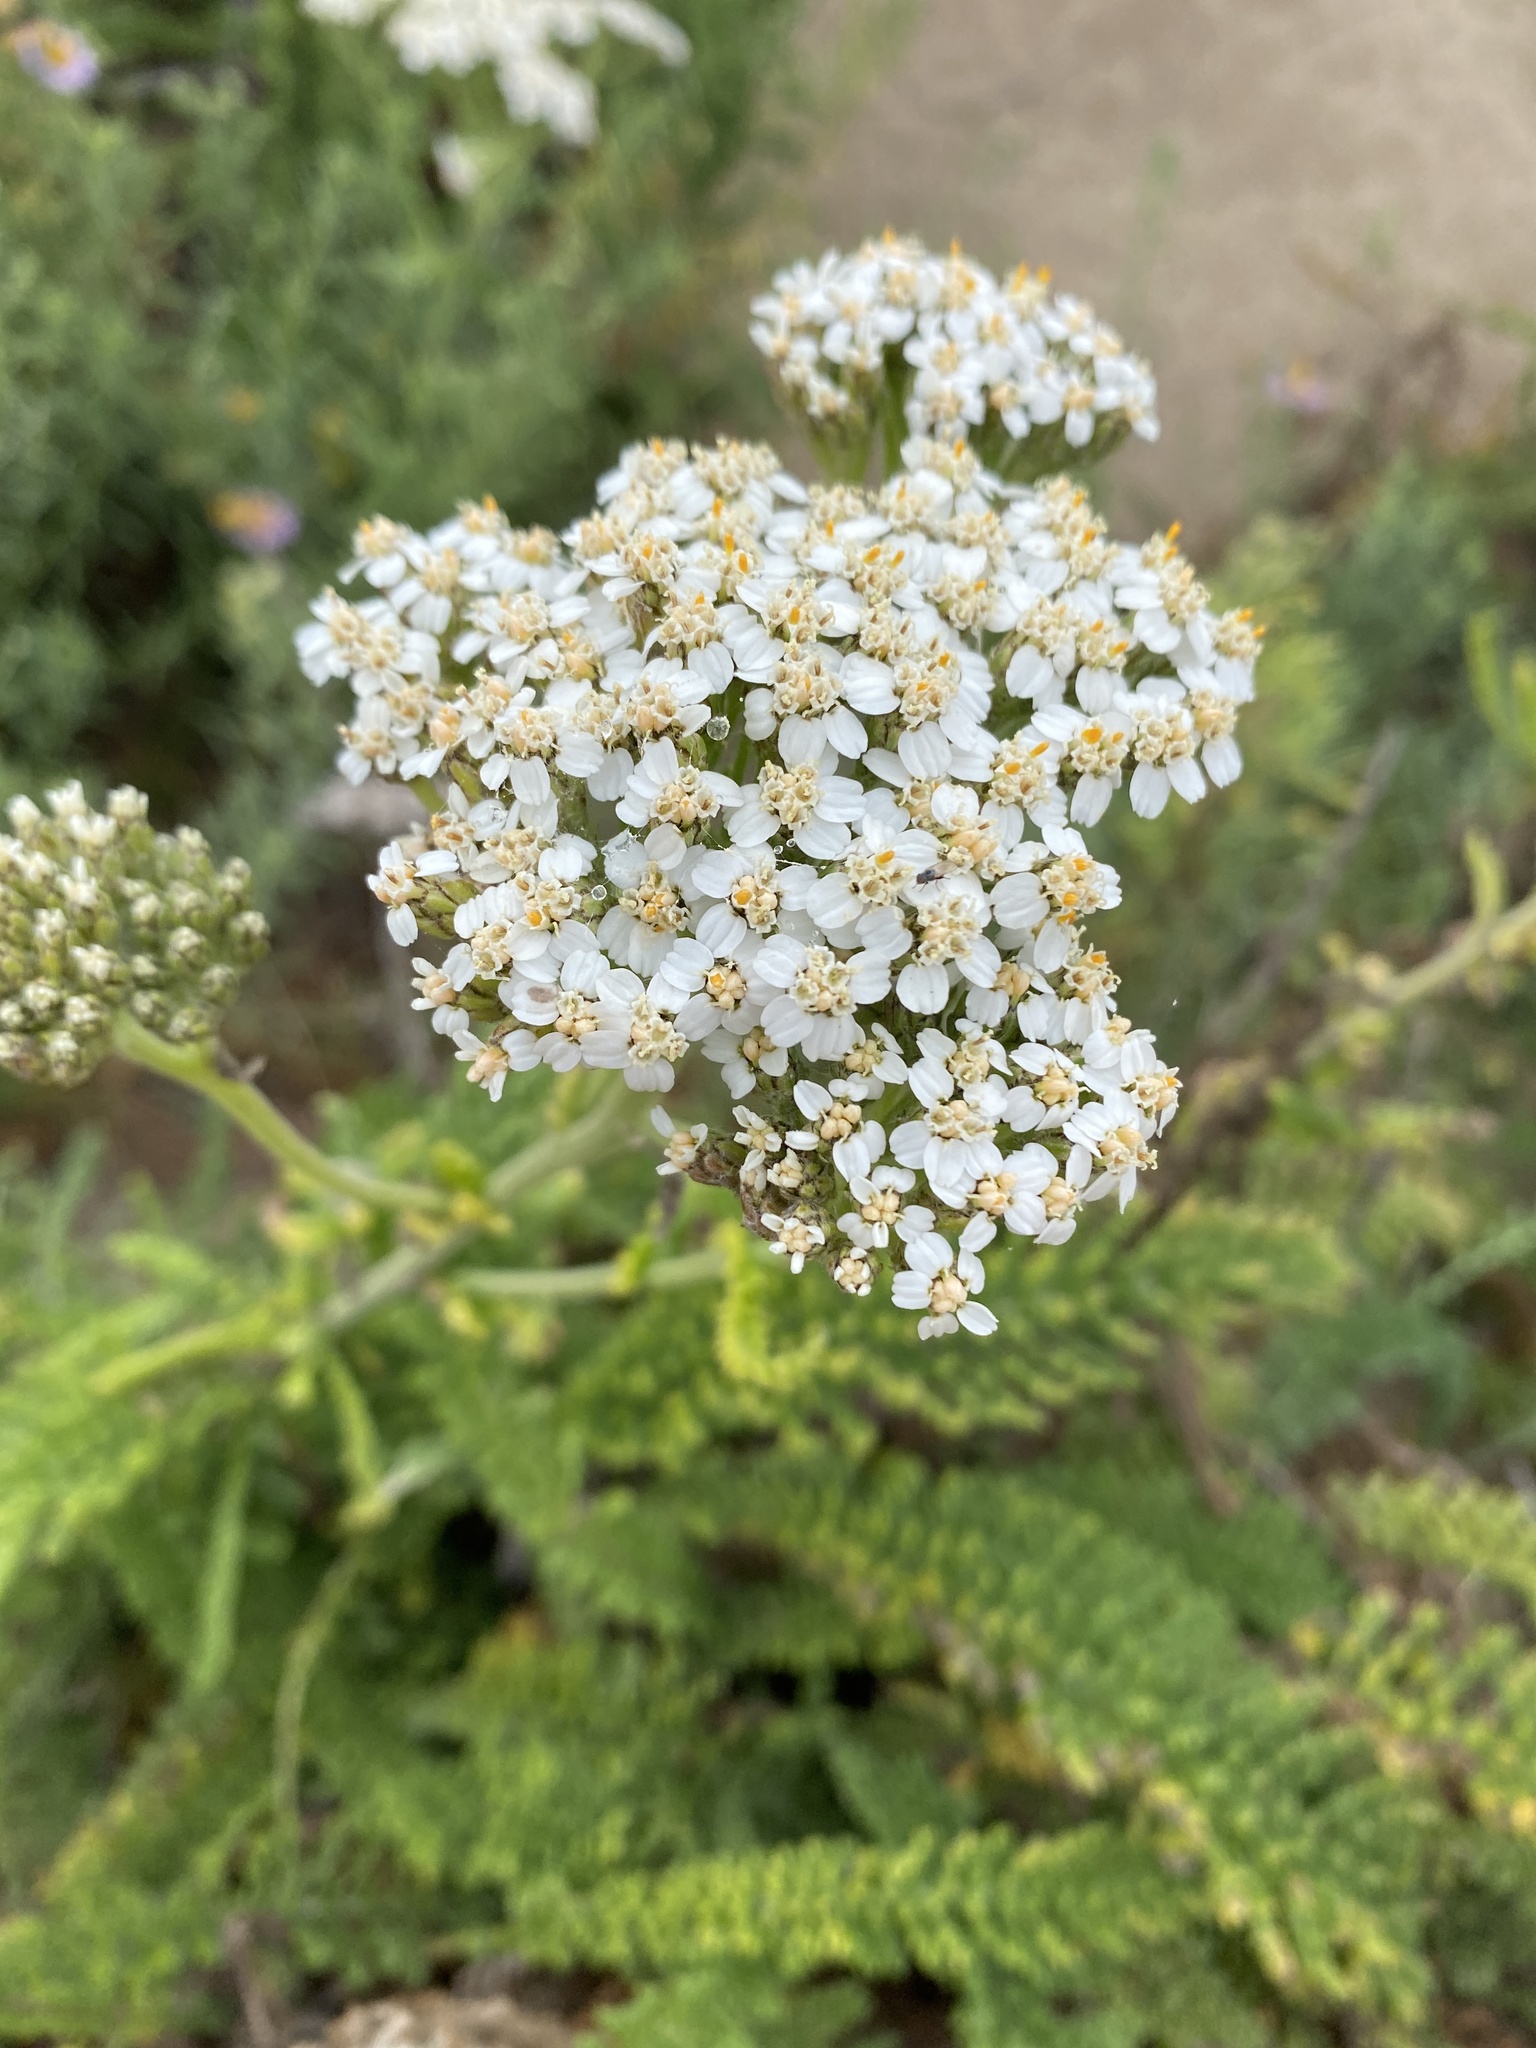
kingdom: Plantae
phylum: Tracheophyta
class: Magnoliopsida
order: Asterales
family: Asteraceae
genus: Achillea
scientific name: Achillea millefolium
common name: Yarrow
